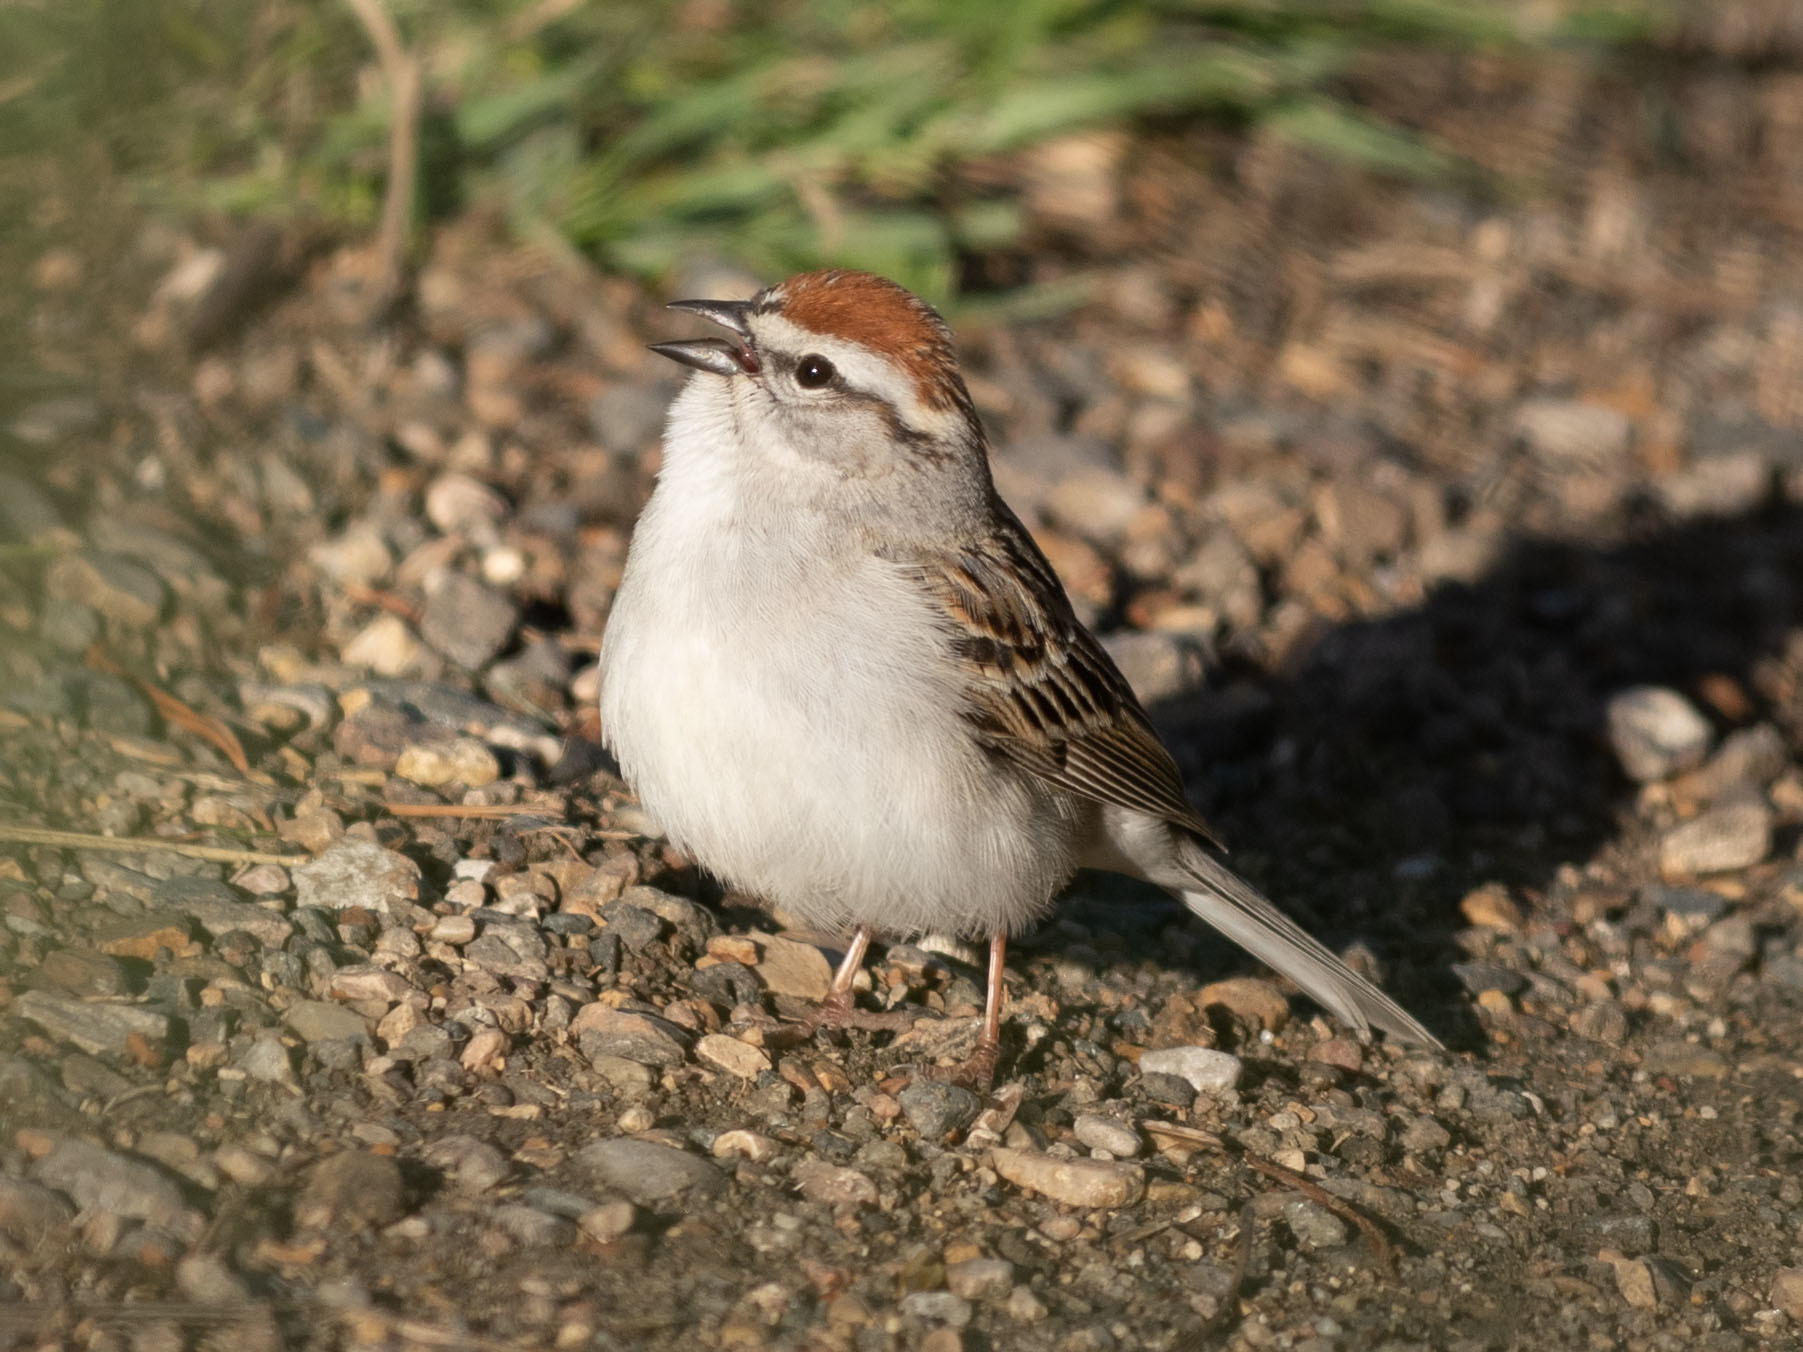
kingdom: Animalia
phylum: Chordata
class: Aves
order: Passeriformes
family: Passerellidae
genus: Spizella
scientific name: Spizella passerina
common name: Chipping sparrow
